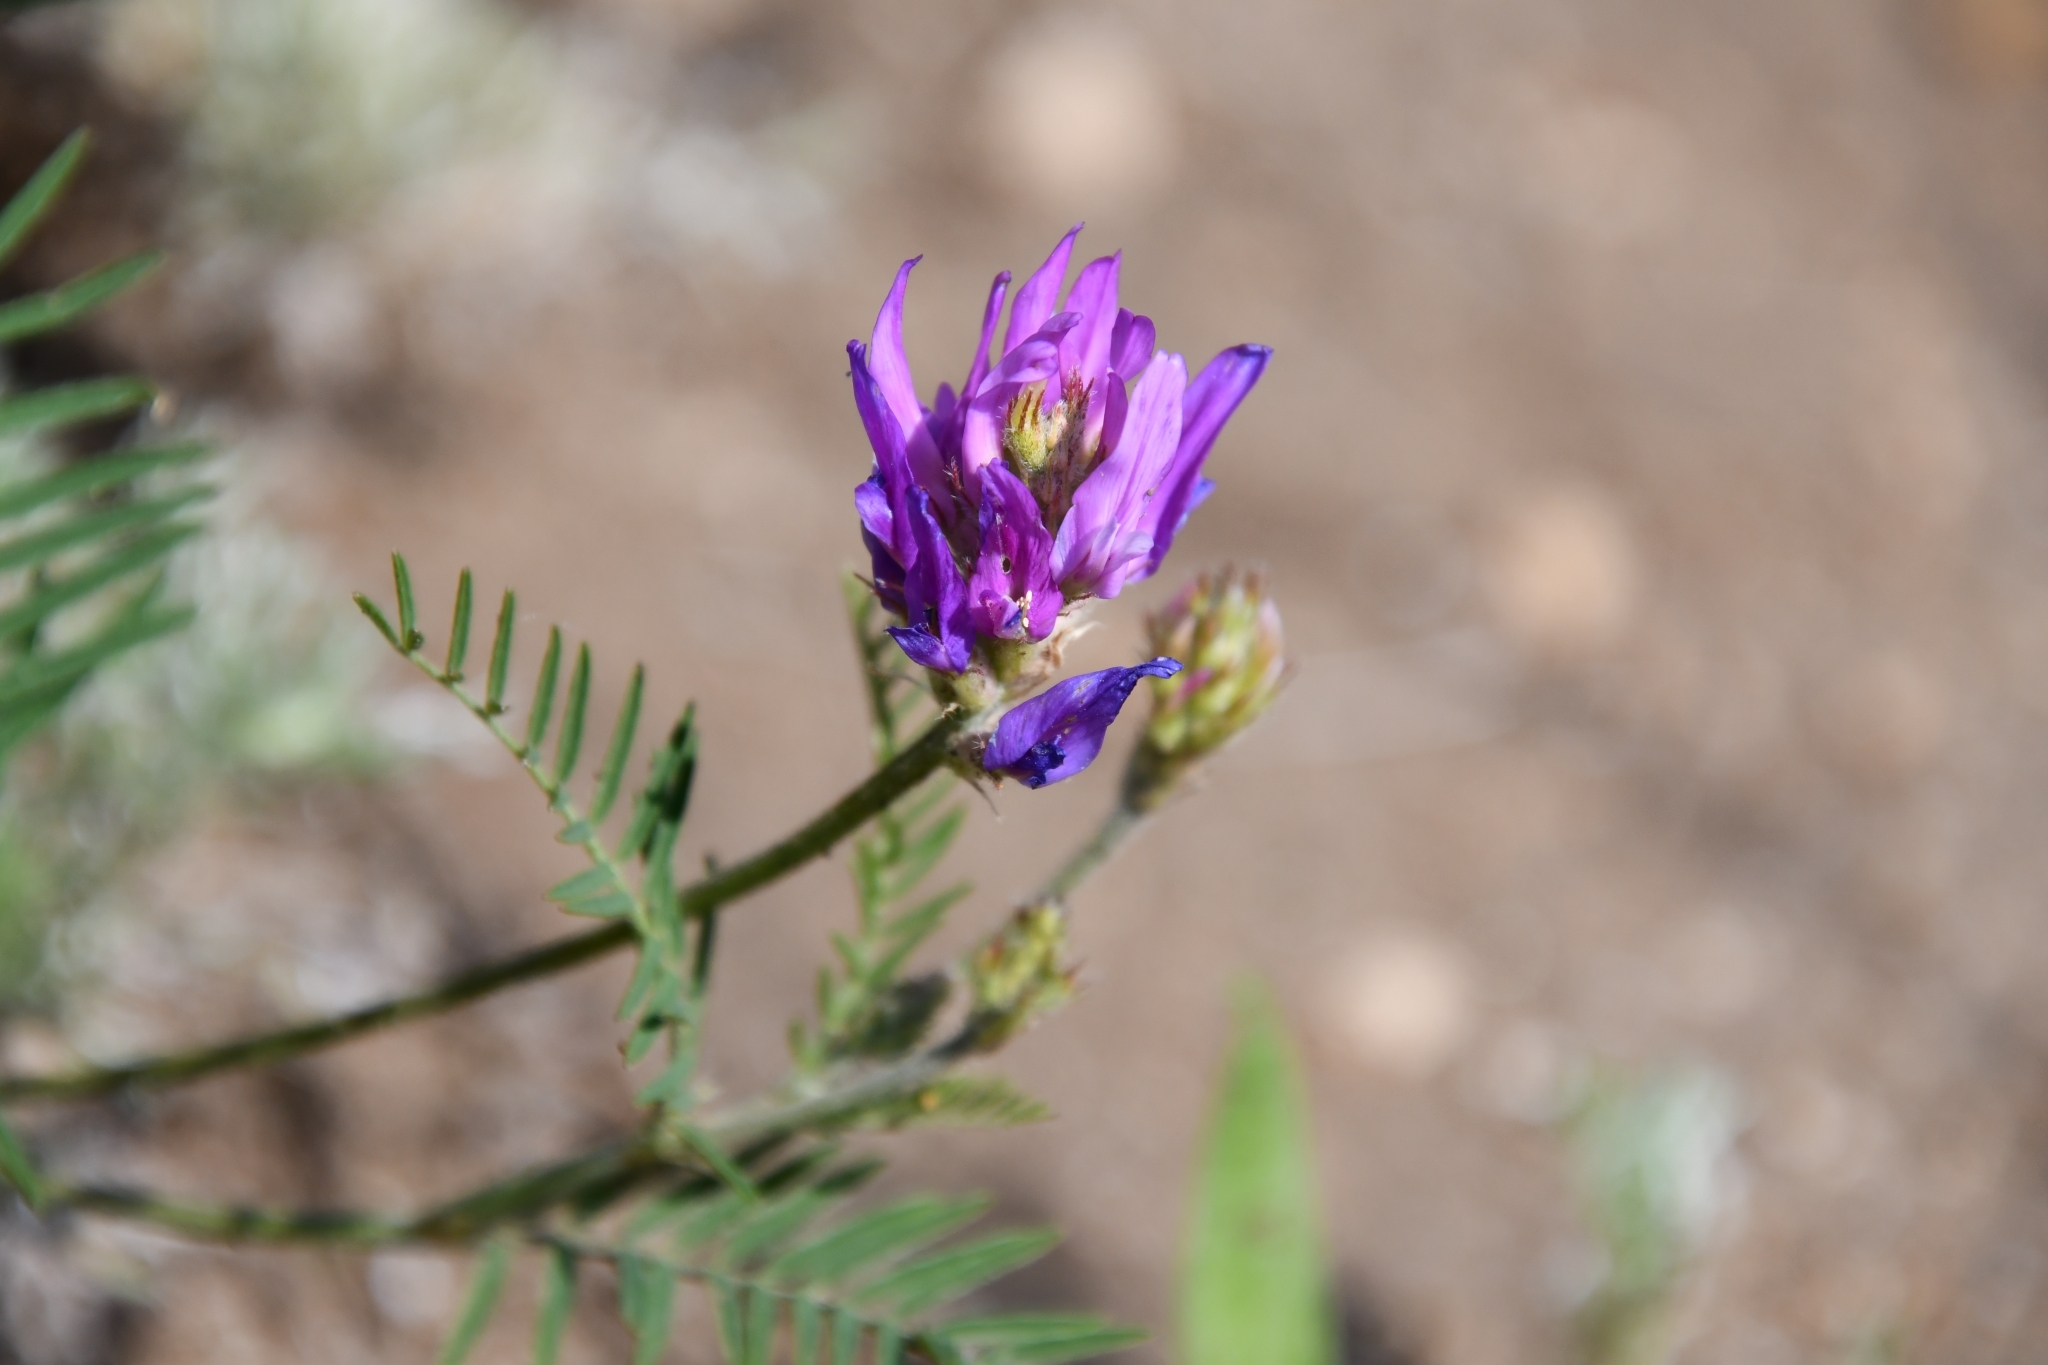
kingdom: Plantae
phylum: Tracheophyta
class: Magnoliopsida
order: Fabales
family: Fabaceae
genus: Astragalus
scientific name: Astragalus onobrychis
